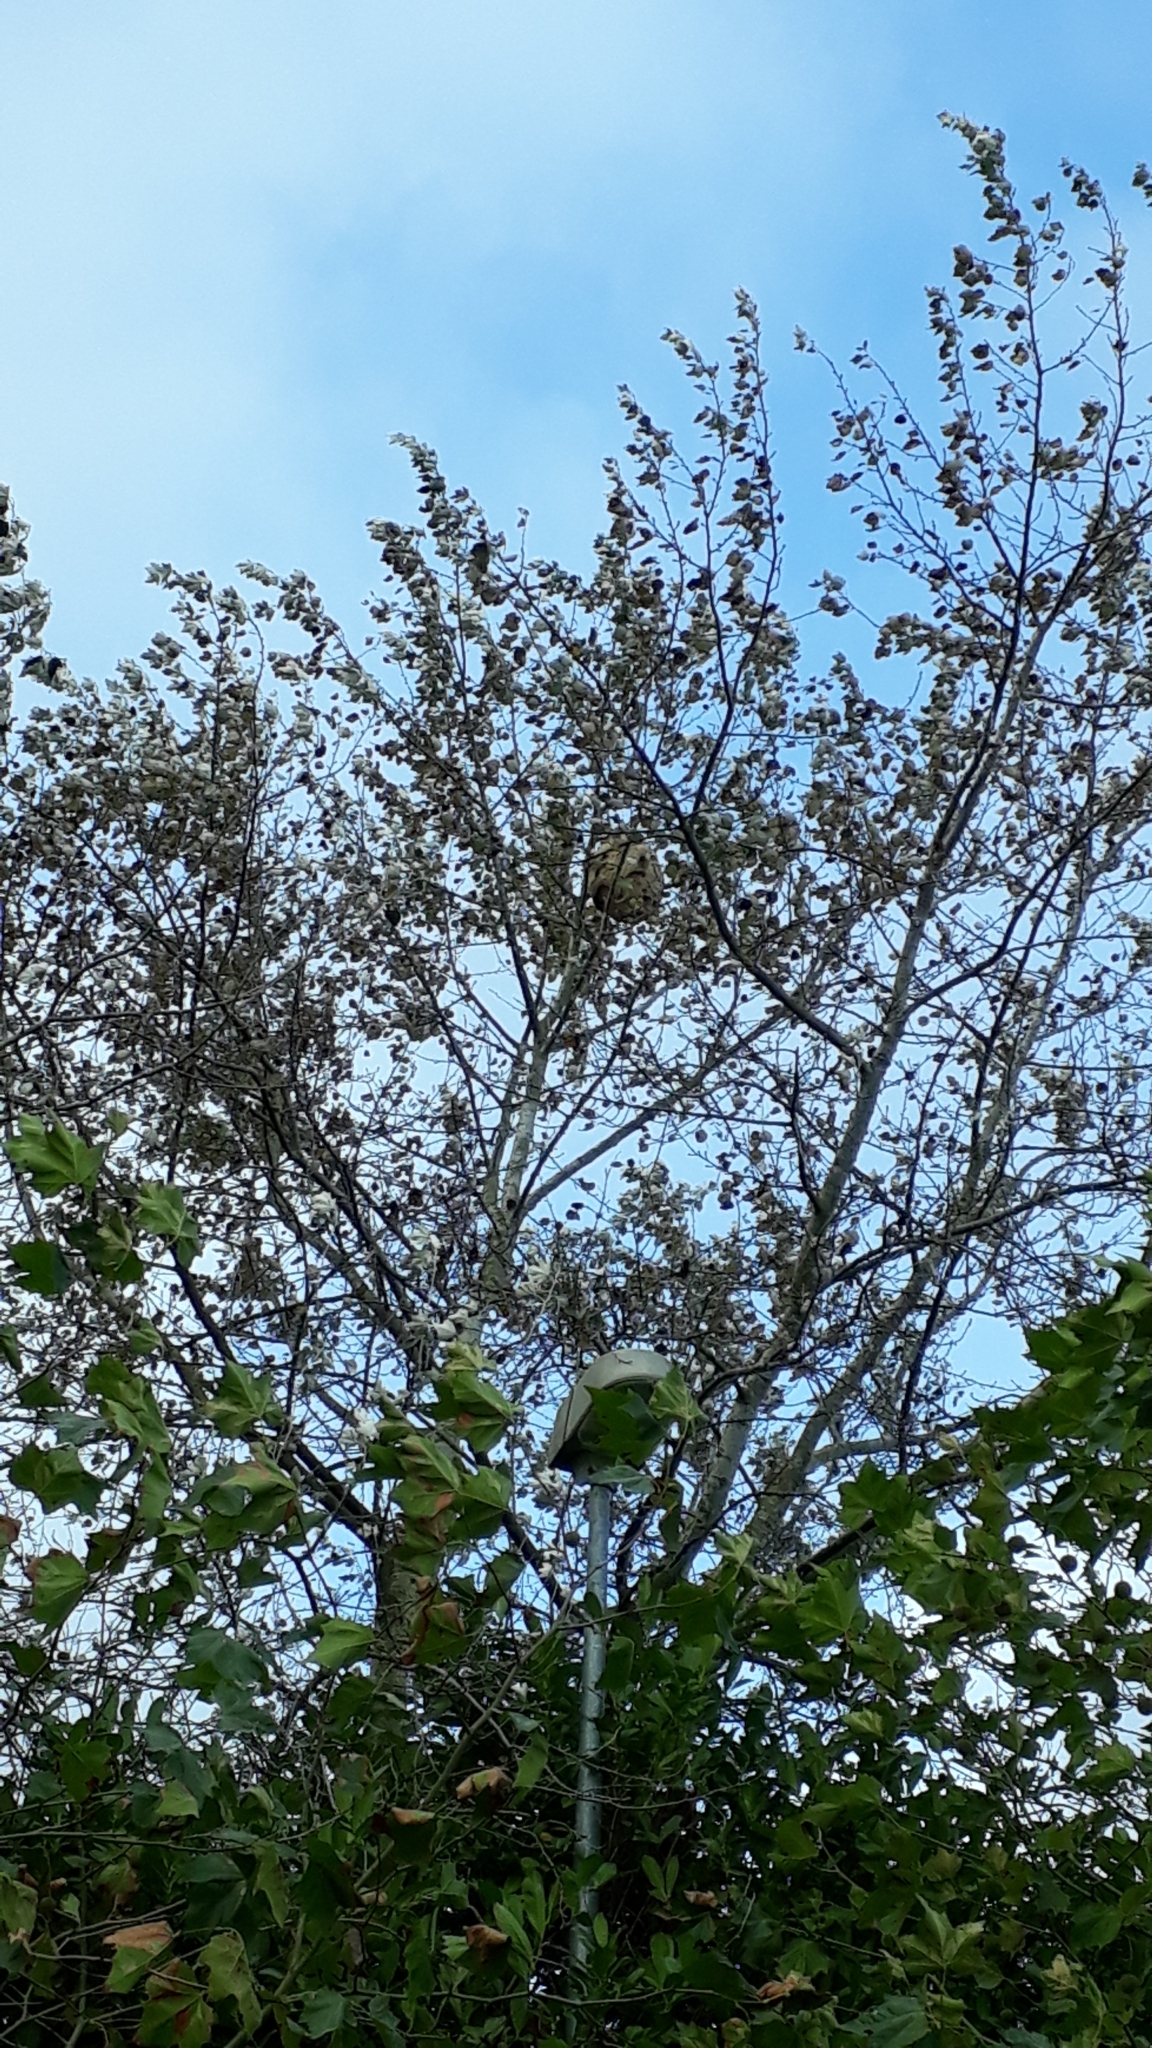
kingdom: Animalia
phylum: Arthropoda
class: Insecta
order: Hymenoptera
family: Vespidae
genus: Vespa
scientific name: Vespa velutina
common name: Asian hornet
